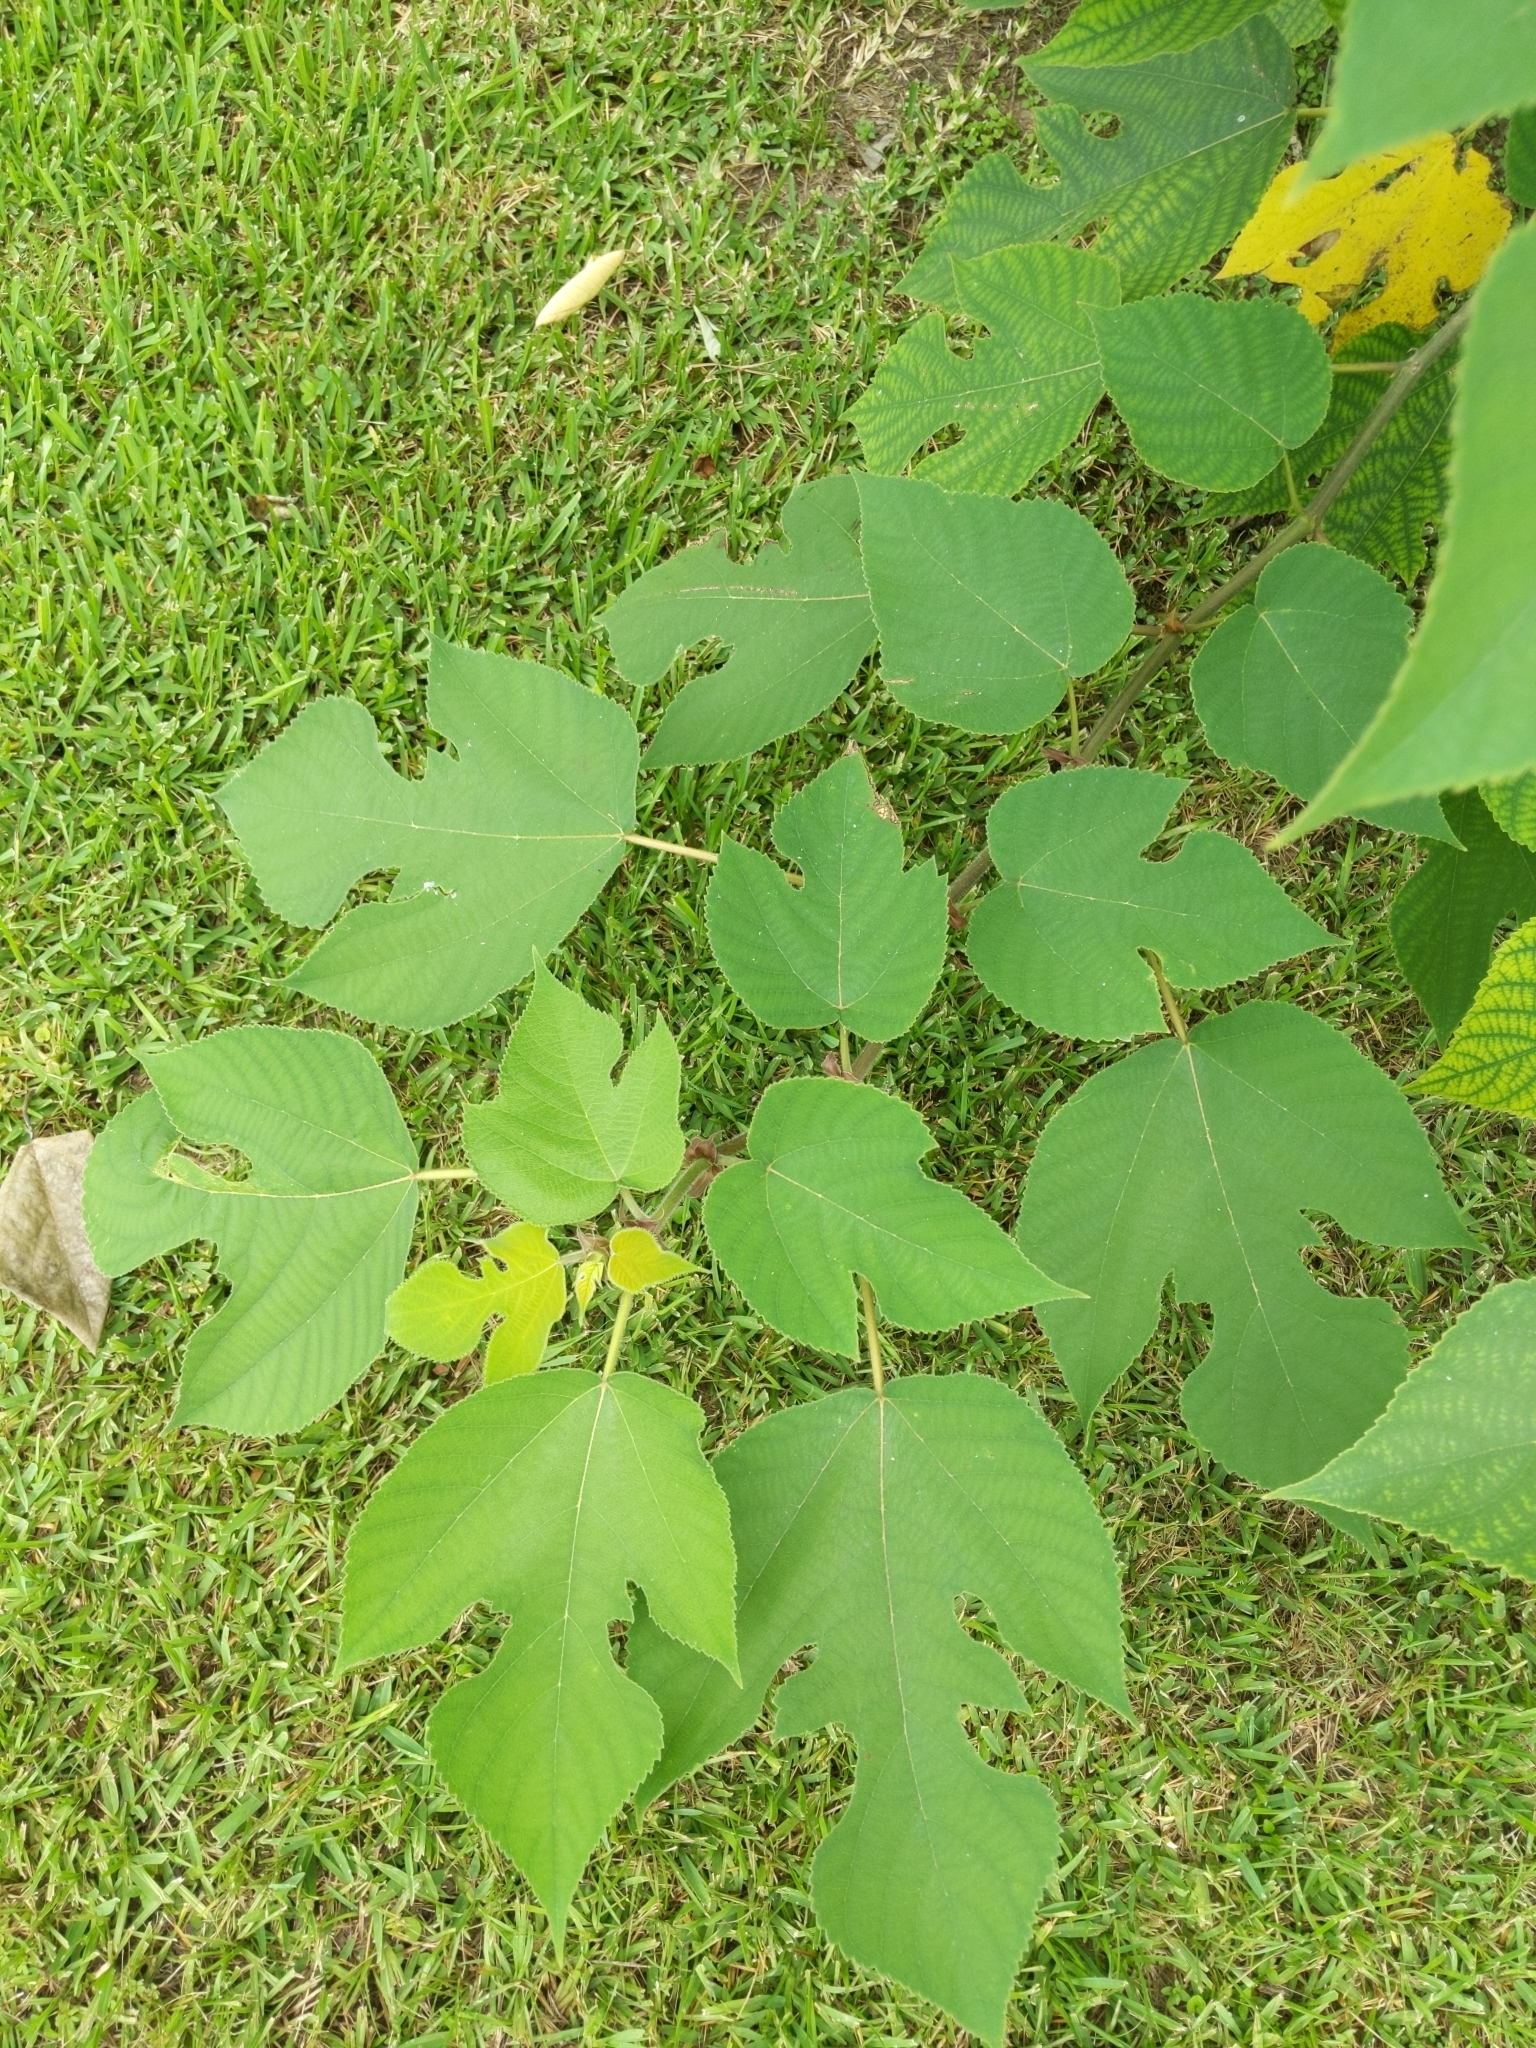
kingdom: Plantae
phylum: Tracheophyta
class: Magnoliopsida
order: Rosales
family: Moraceae
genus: Broussonetia
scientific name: Broussonetia papyrifera
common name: Paper mulberry
